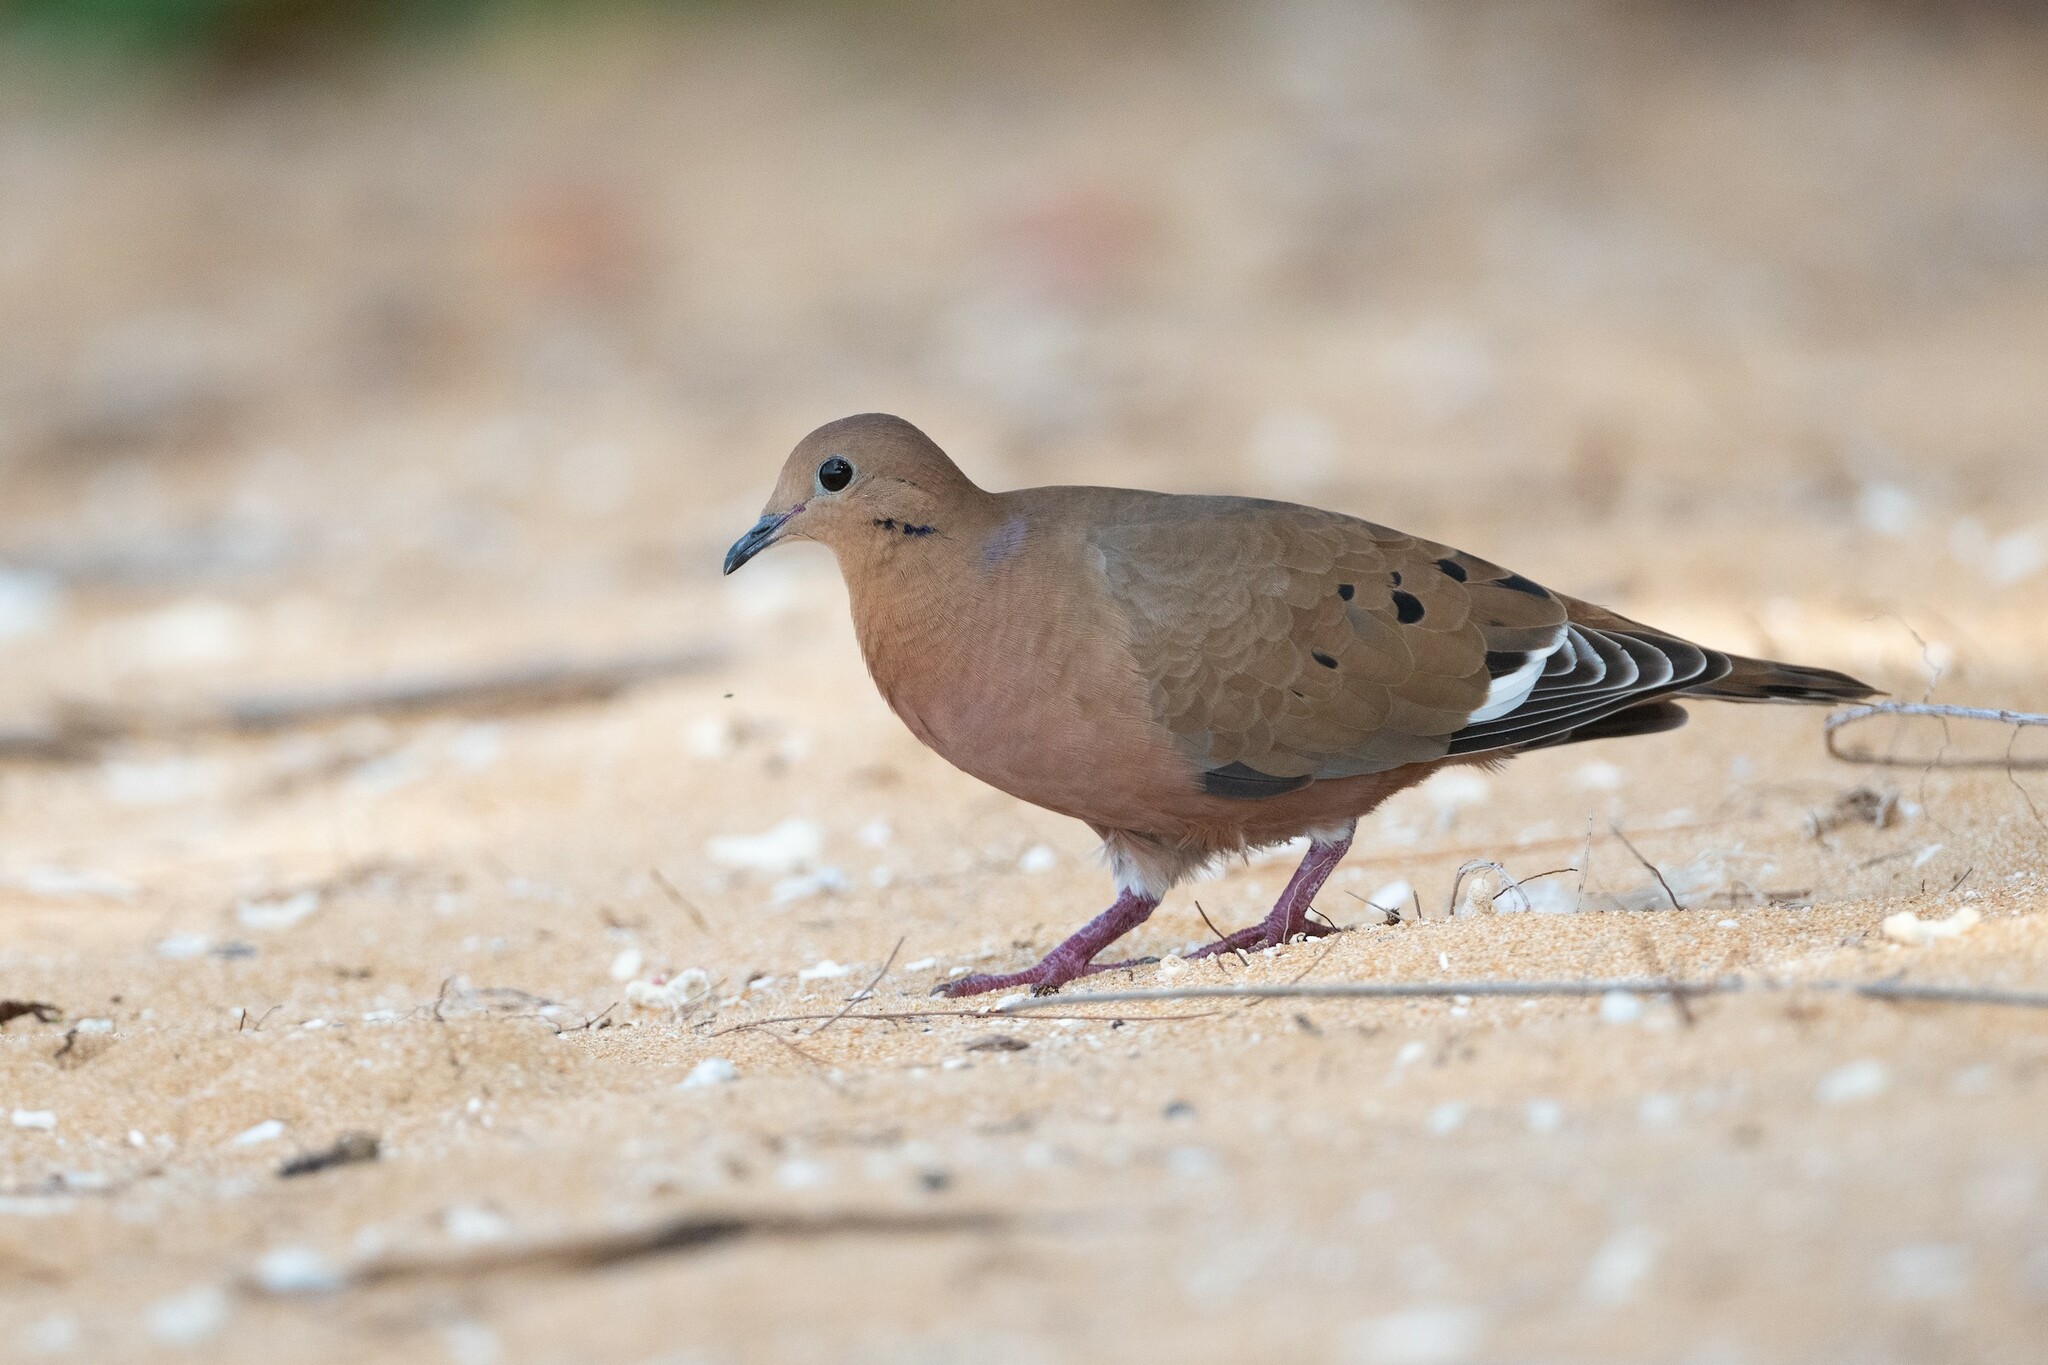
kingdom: Animalia
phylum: Chordata
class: Aves
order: Columbiformes
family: Columbidae
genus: Zenaida
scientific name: Zenaida aurita
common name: Zenaida dove
